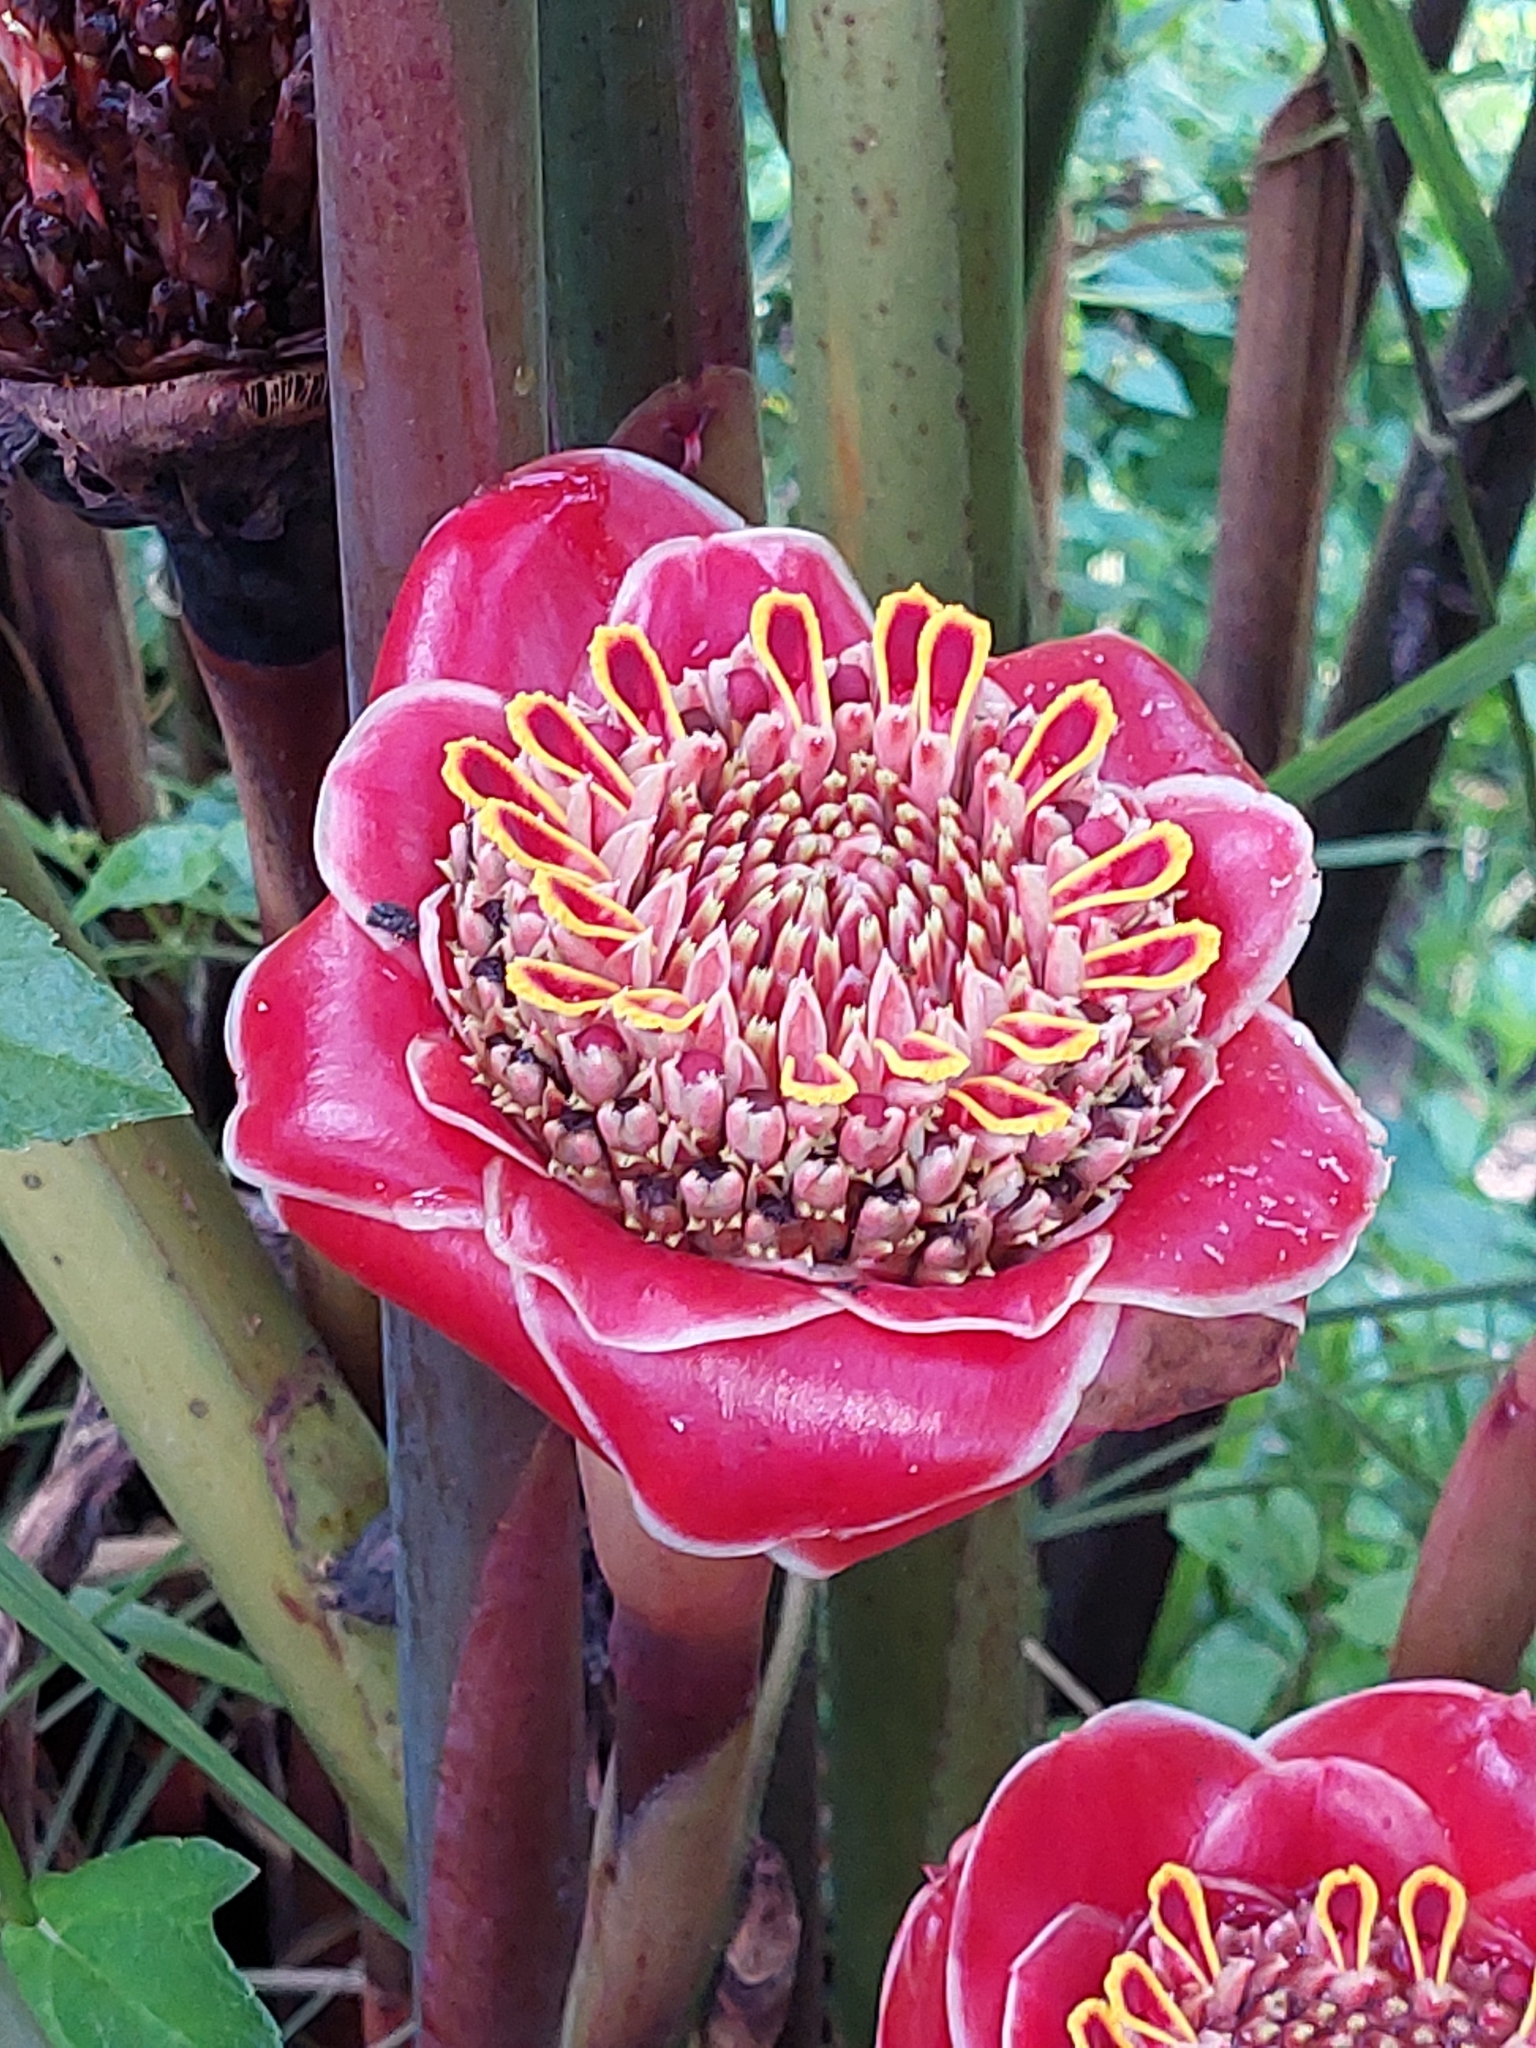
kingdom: Plantae
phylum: Tracheophyta
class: Liliopsida
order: Zingiberales
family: Zingiberaceae
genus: Etlingera
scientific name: Etlingera hemisphaerica
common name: Black tulip
